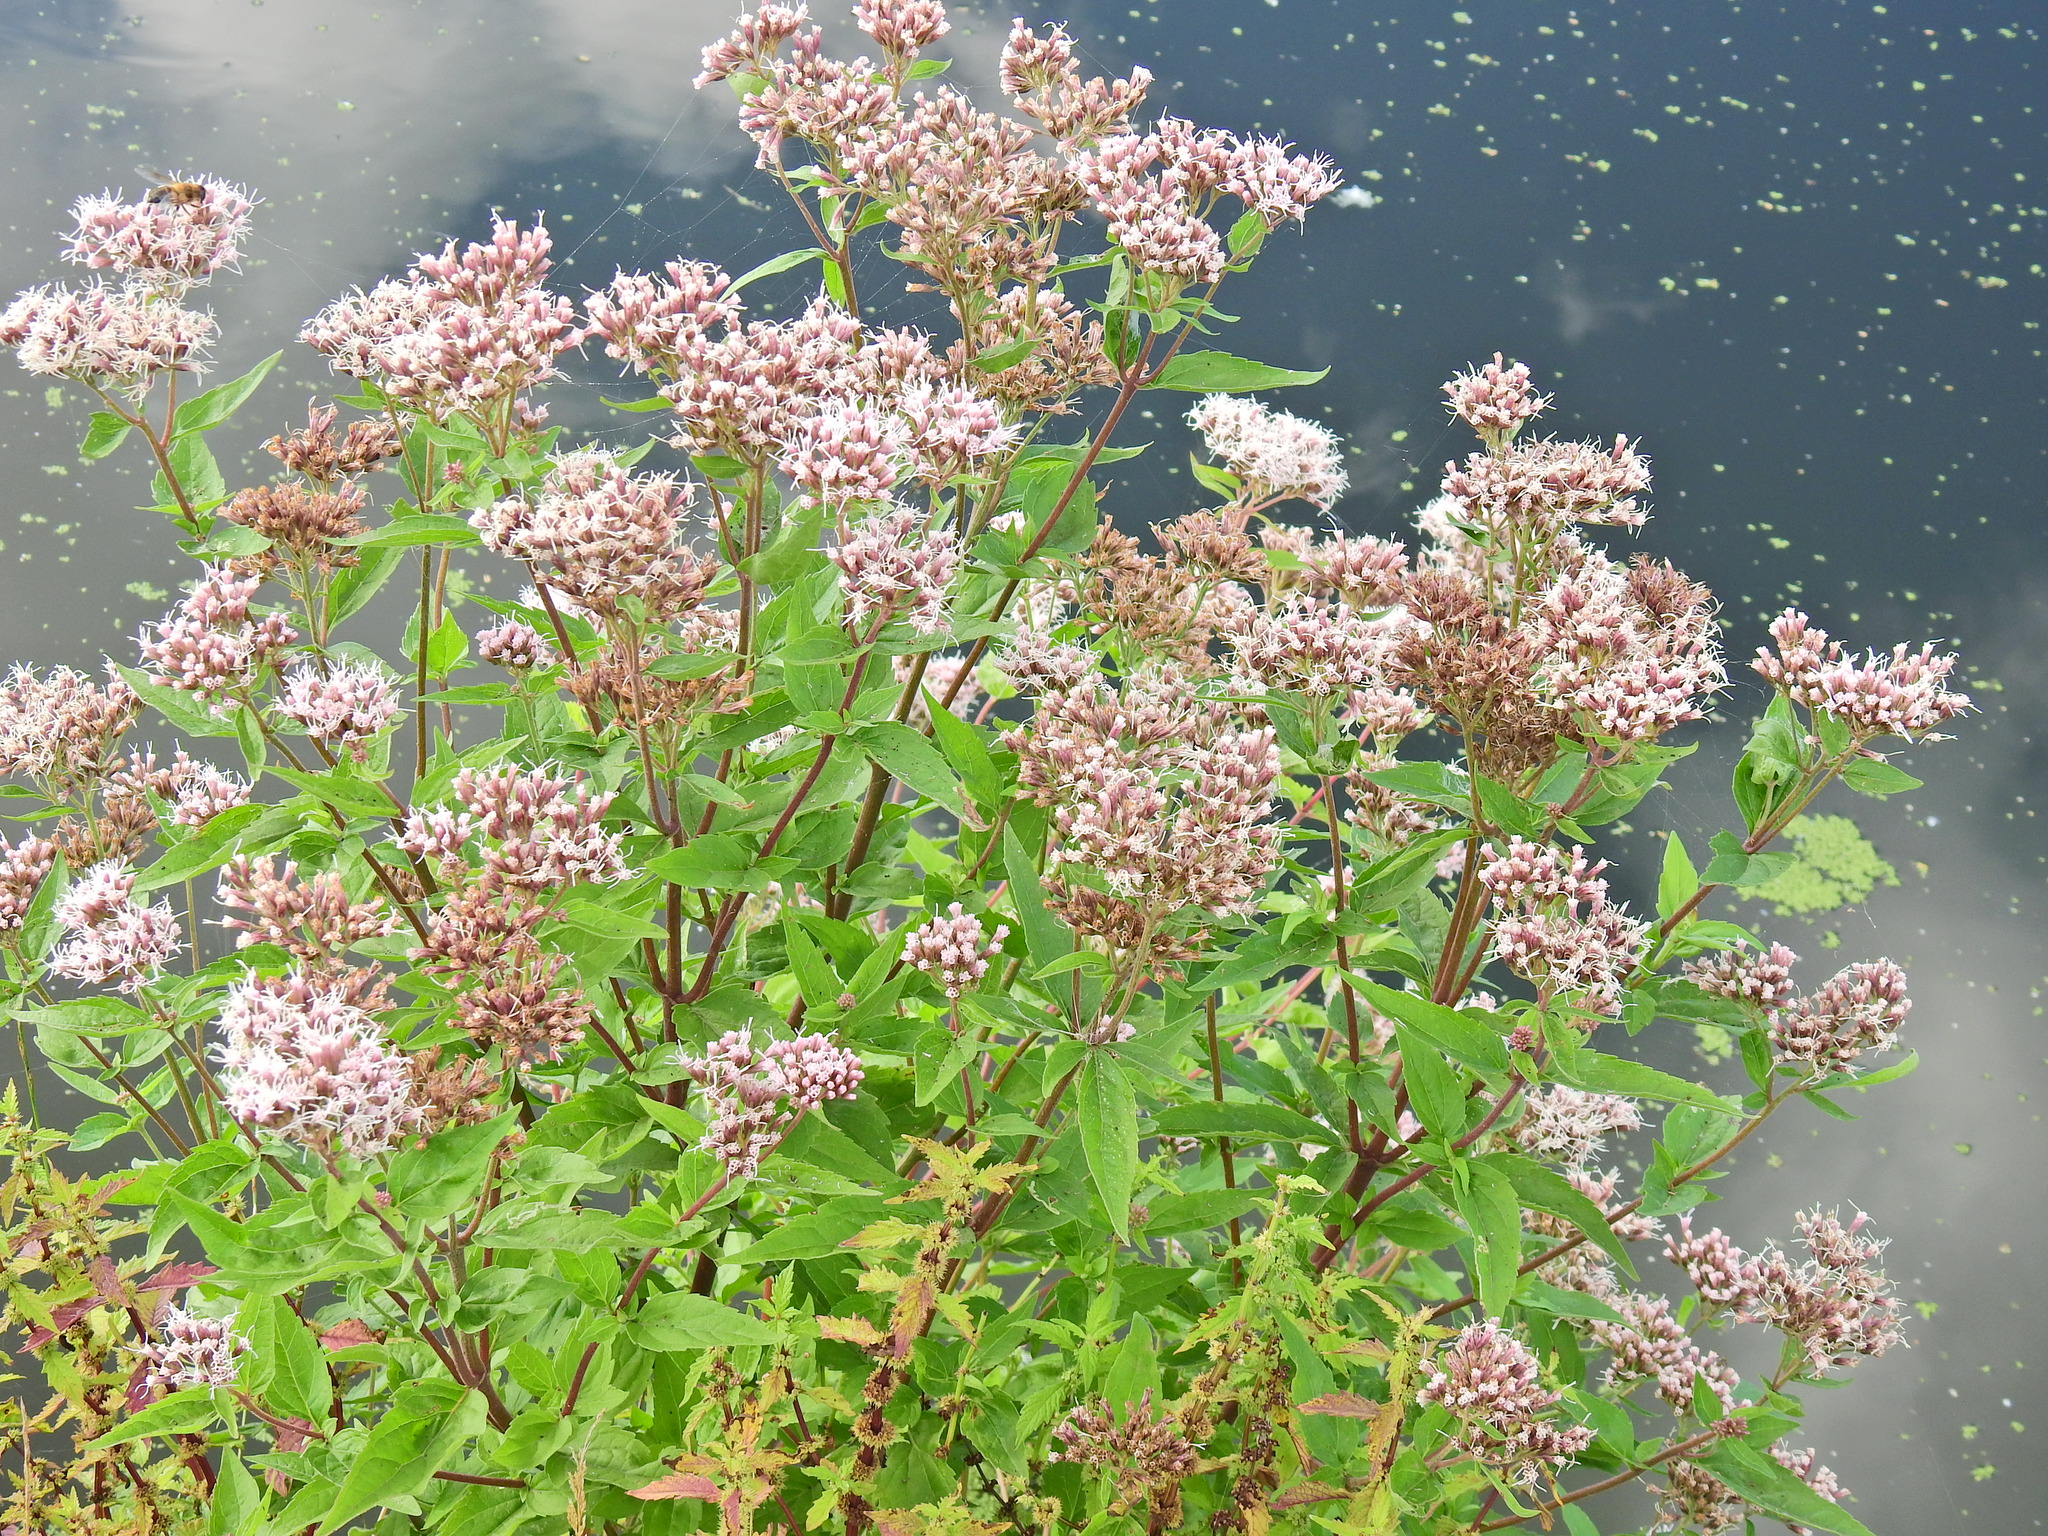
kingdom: Plantae
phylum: Tracheophyta
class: Magnoliopsida
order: Asterales
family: Asteraceae
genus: Eupatorium
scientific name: Eupatorium cannabinum
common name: Hemp-agrimony
